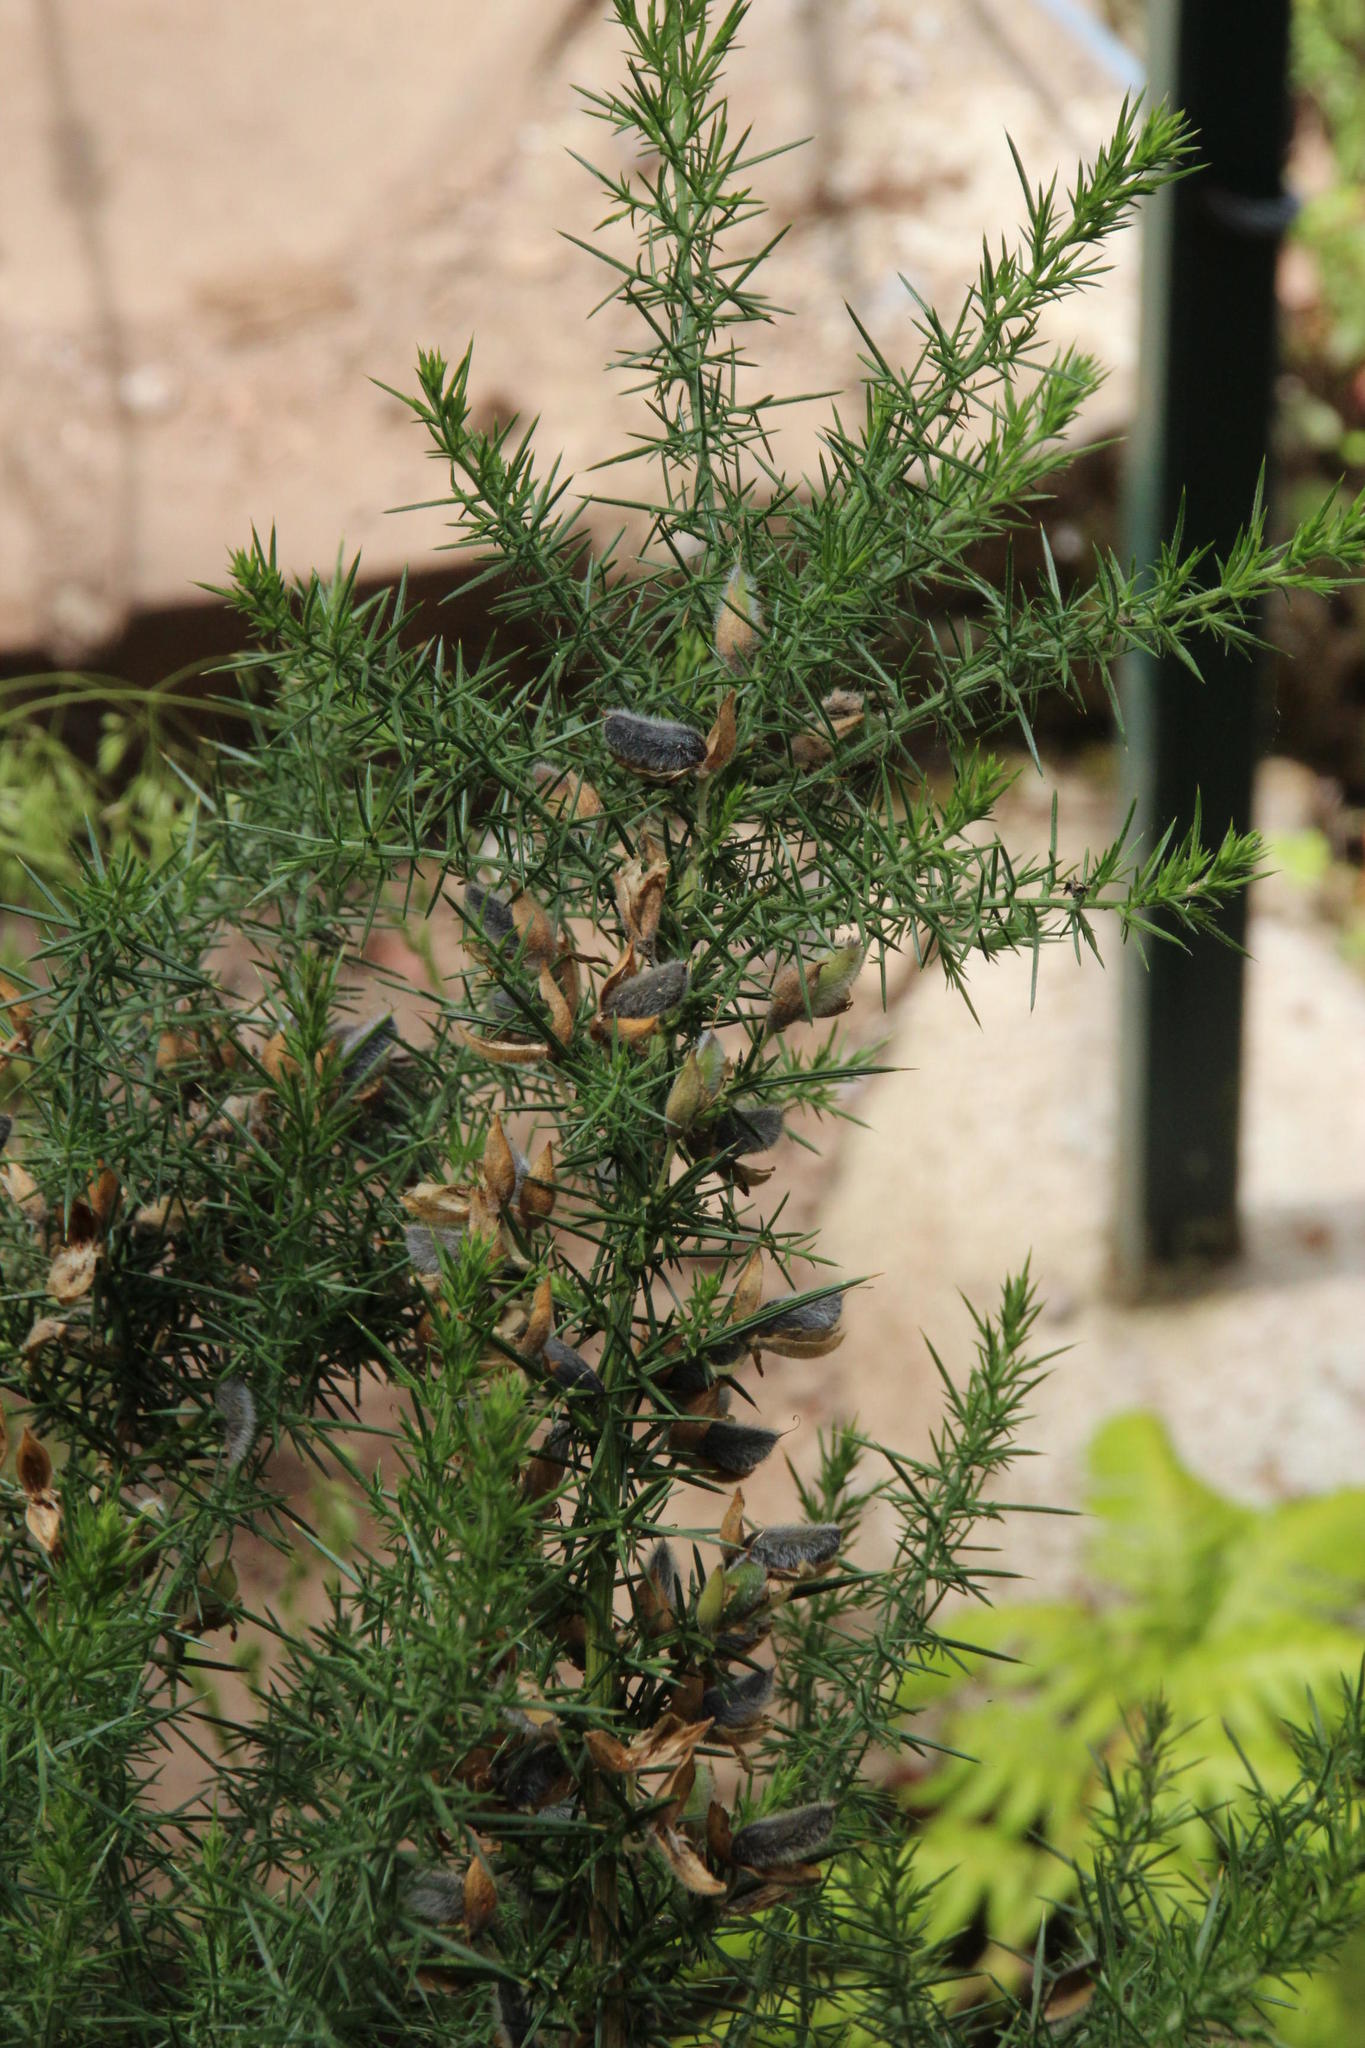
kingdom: Plantae
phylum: Tracheophyta
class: Magnoliopsida
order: Fabales
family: Fabaceae
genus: Ulex
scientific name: Ulex europaeus
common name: Common gorse
